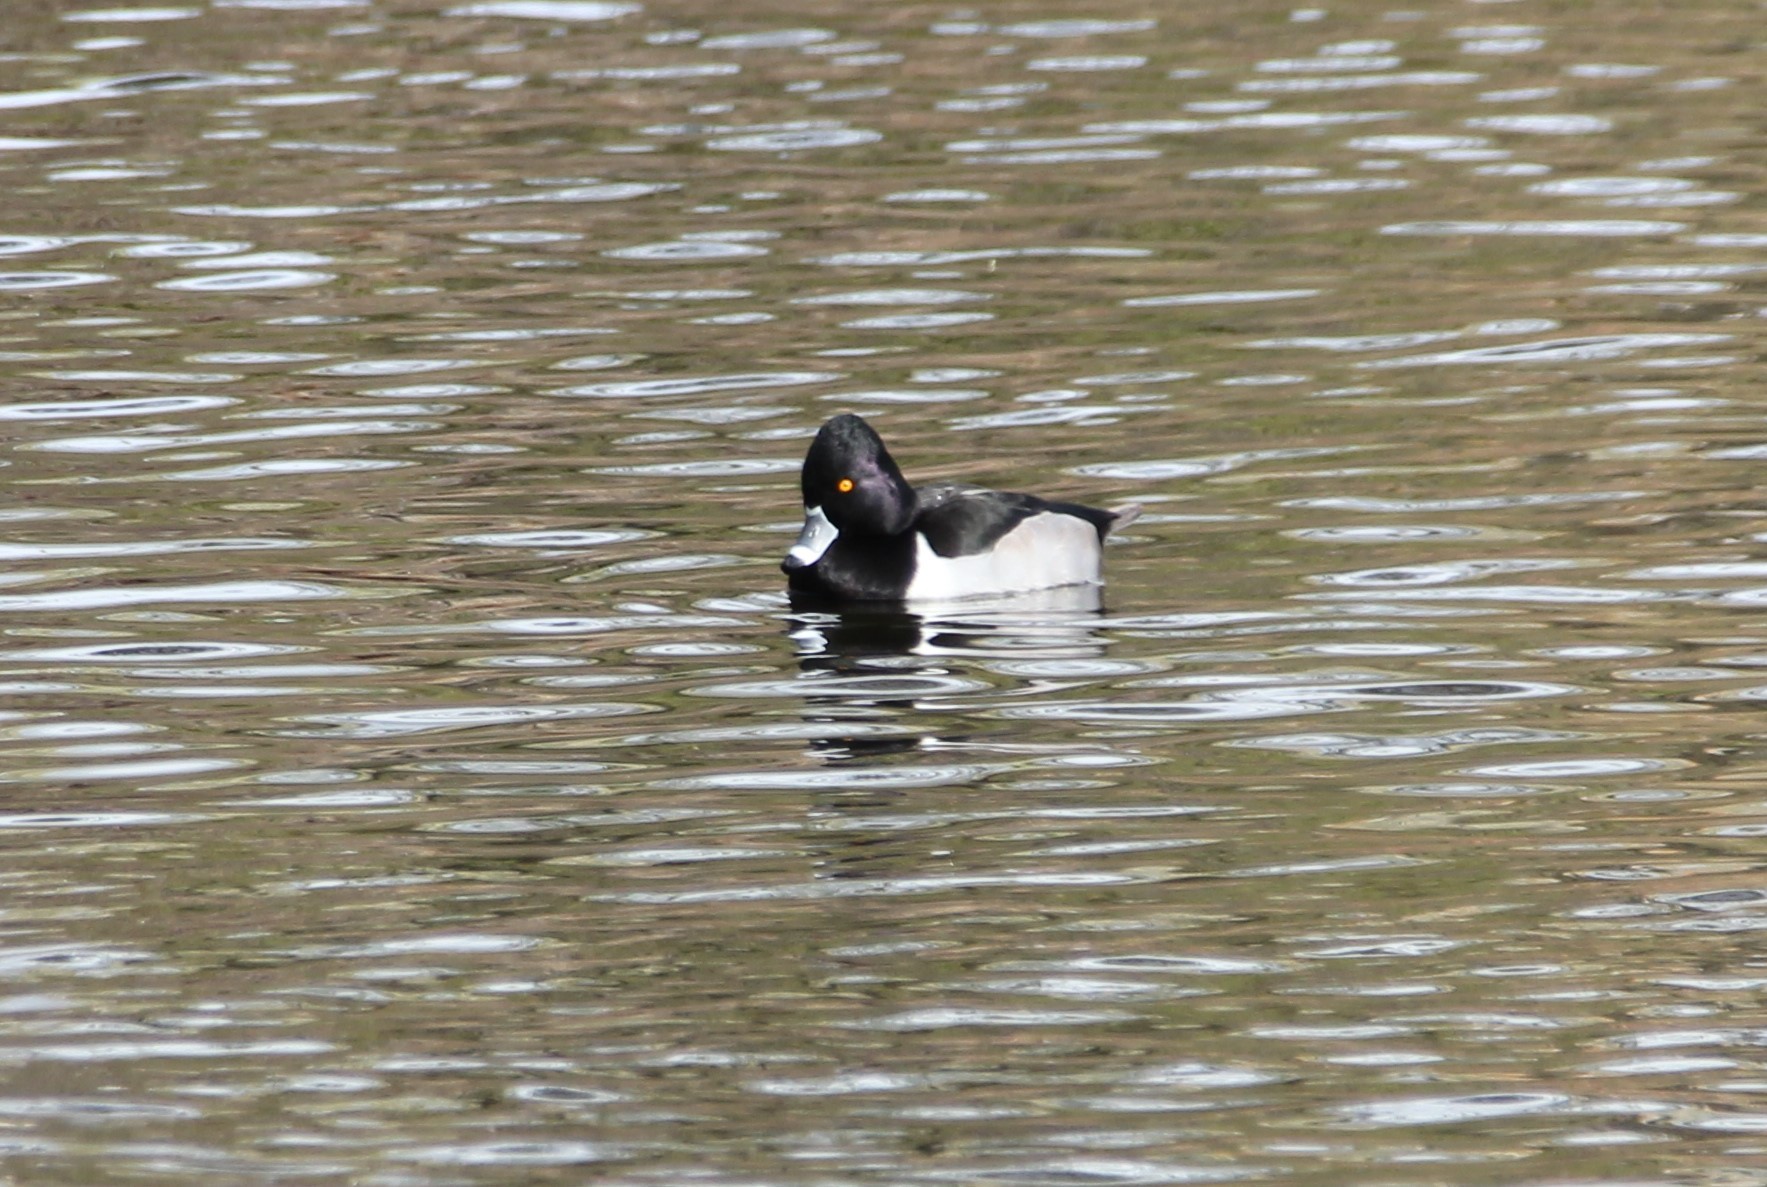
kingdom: Animalia
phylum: Chordata
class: Aves
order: Anseriformes
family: Anatidae
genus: Aythya
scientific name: Aythya collaris
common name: Ring-necked duck
